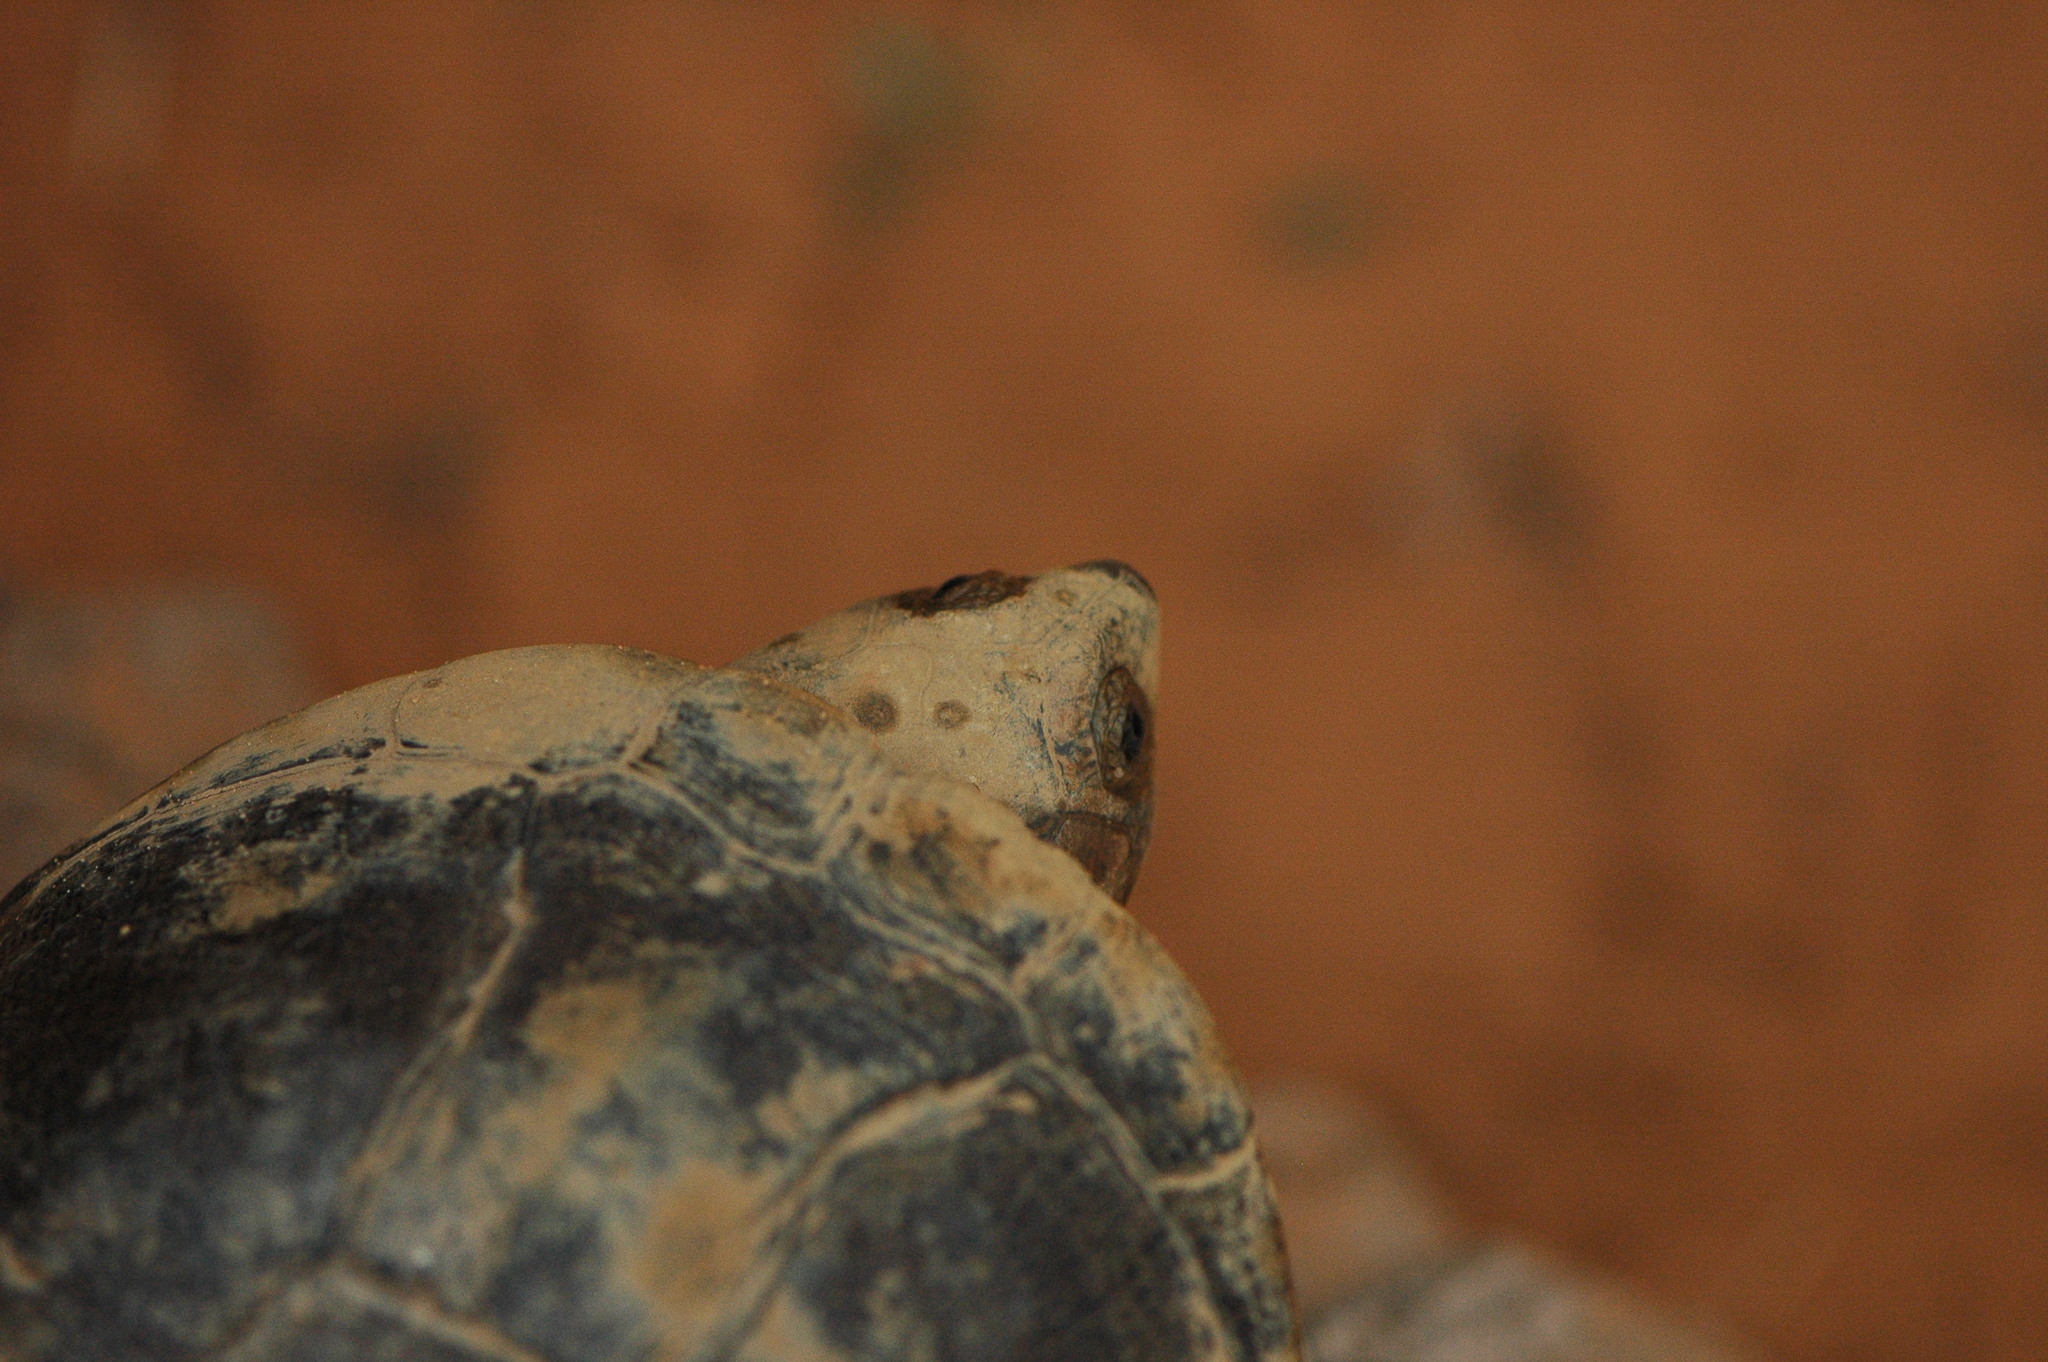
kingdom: Animalia
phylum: Chordata
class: Testudines
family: Pelomedusidae
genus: Pelusios
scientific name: Pelusios adansonii
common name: Adansons mud turtle
